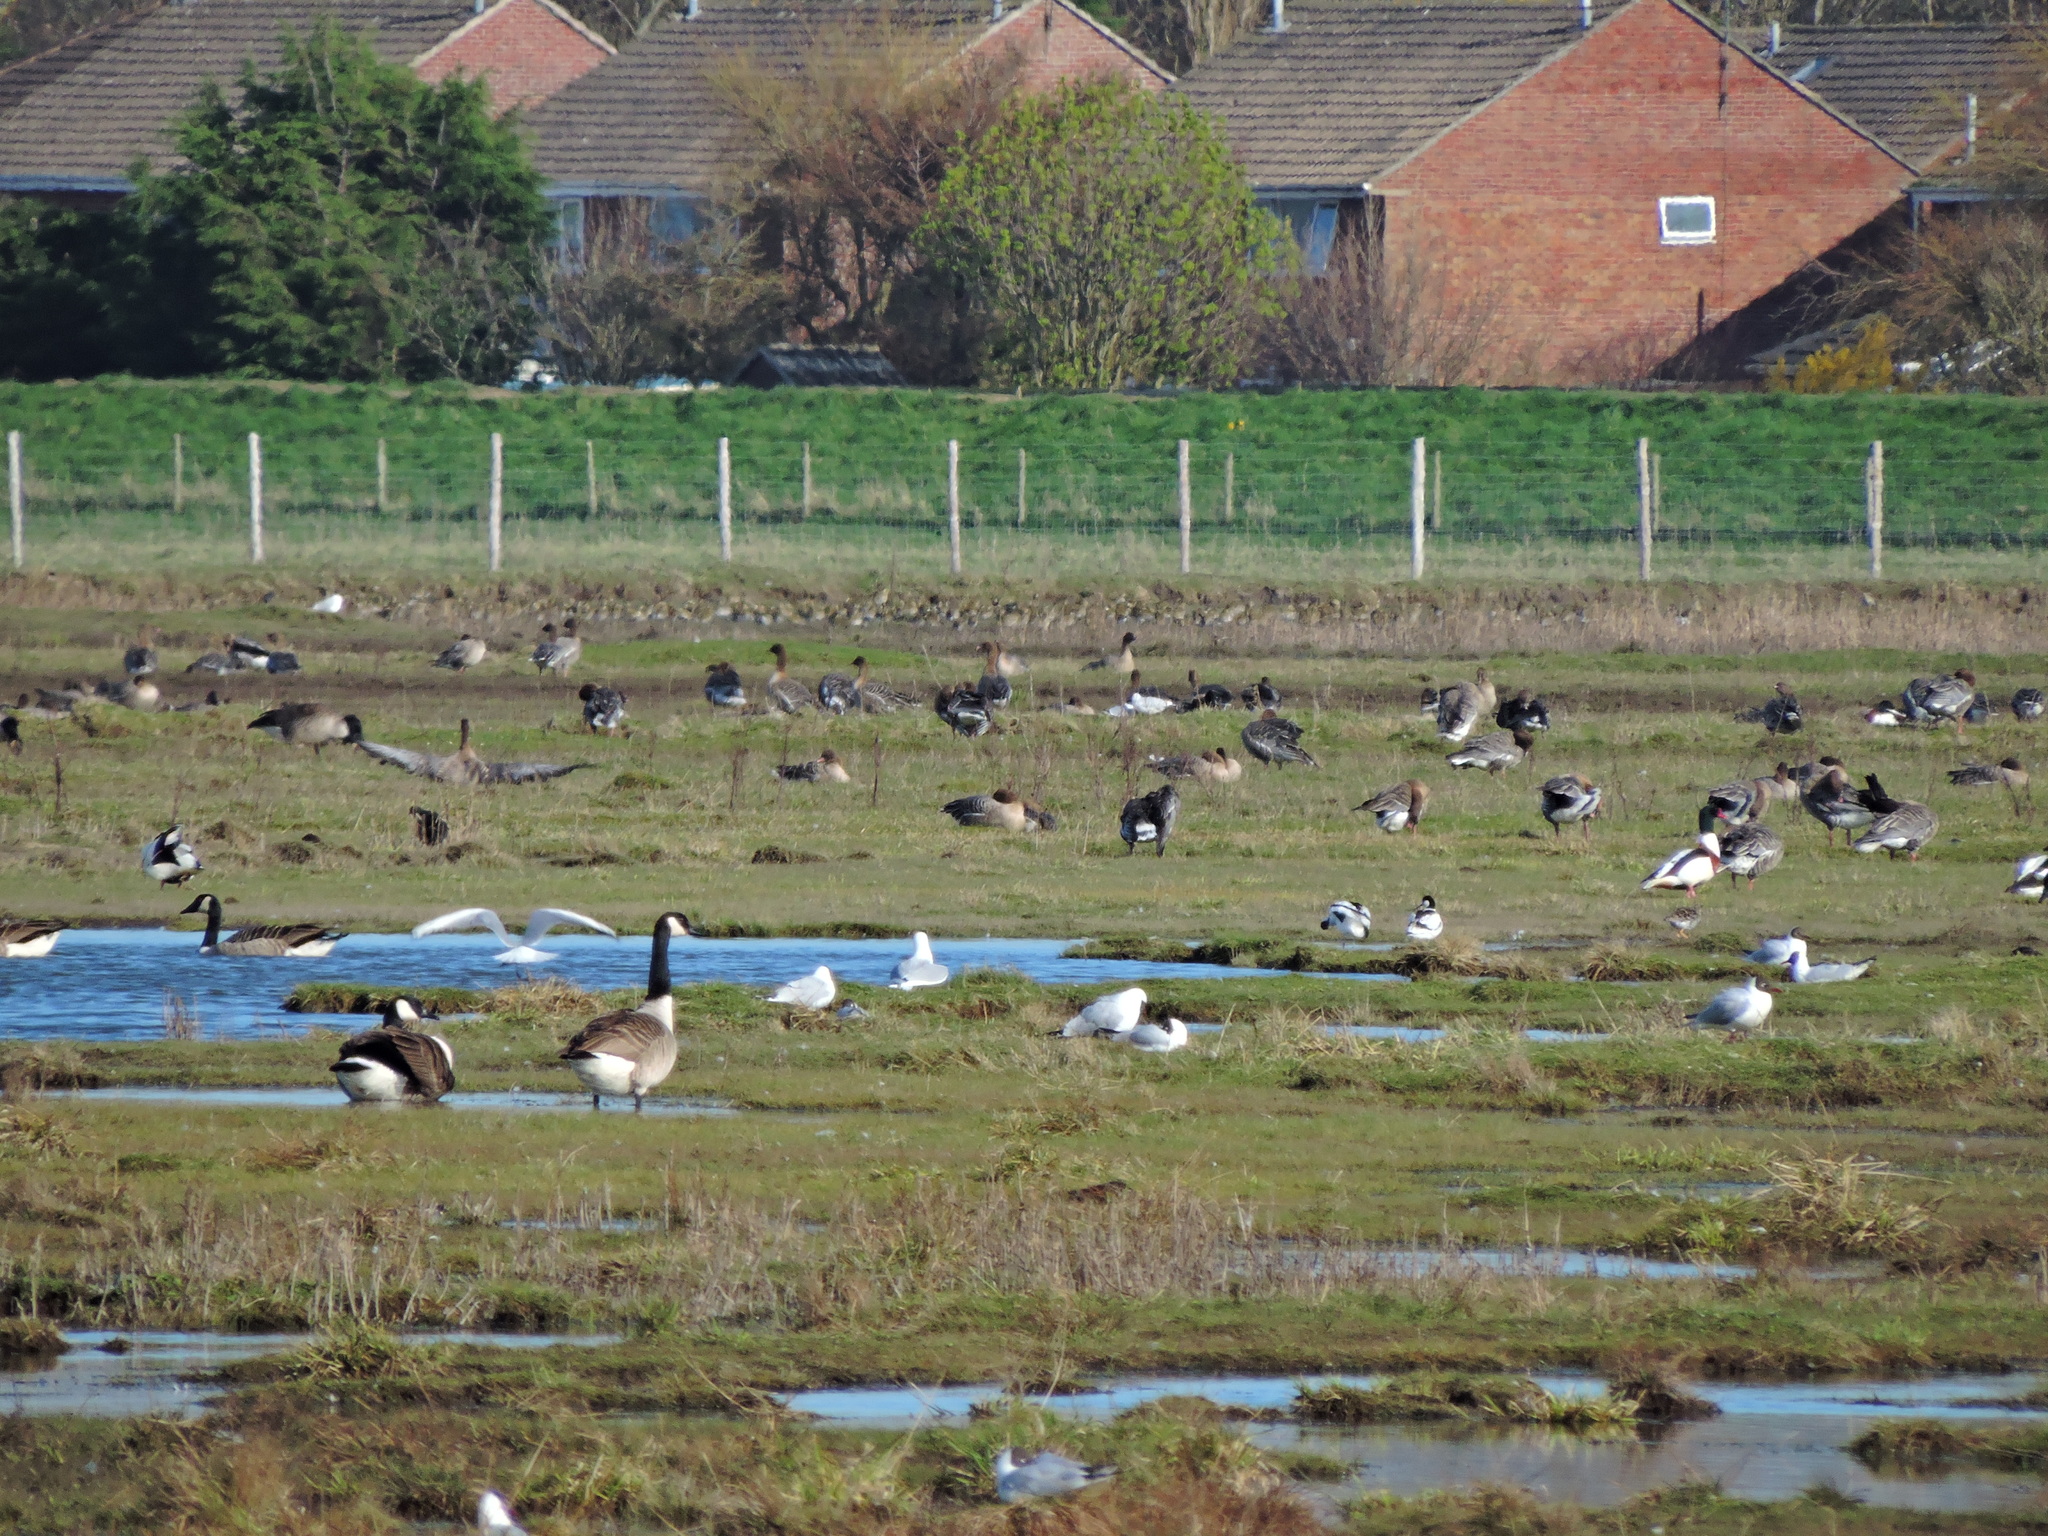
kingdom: Animalia
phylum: Chordata
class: Aves
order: Anseriformes
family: Anatidae
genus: Branta
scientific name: Branta canadensis
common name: Canada goose
